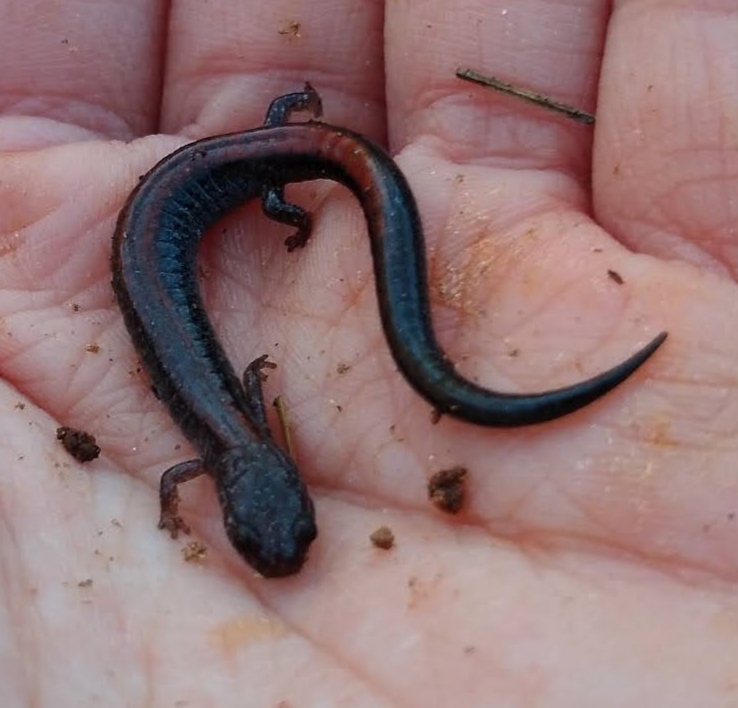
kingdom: Animalia
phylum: Chordata
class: Amphibia
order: Caudata
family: Plethodontidae
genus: Plethodon
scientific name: Plethodon cinereus
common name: Redback salamander
